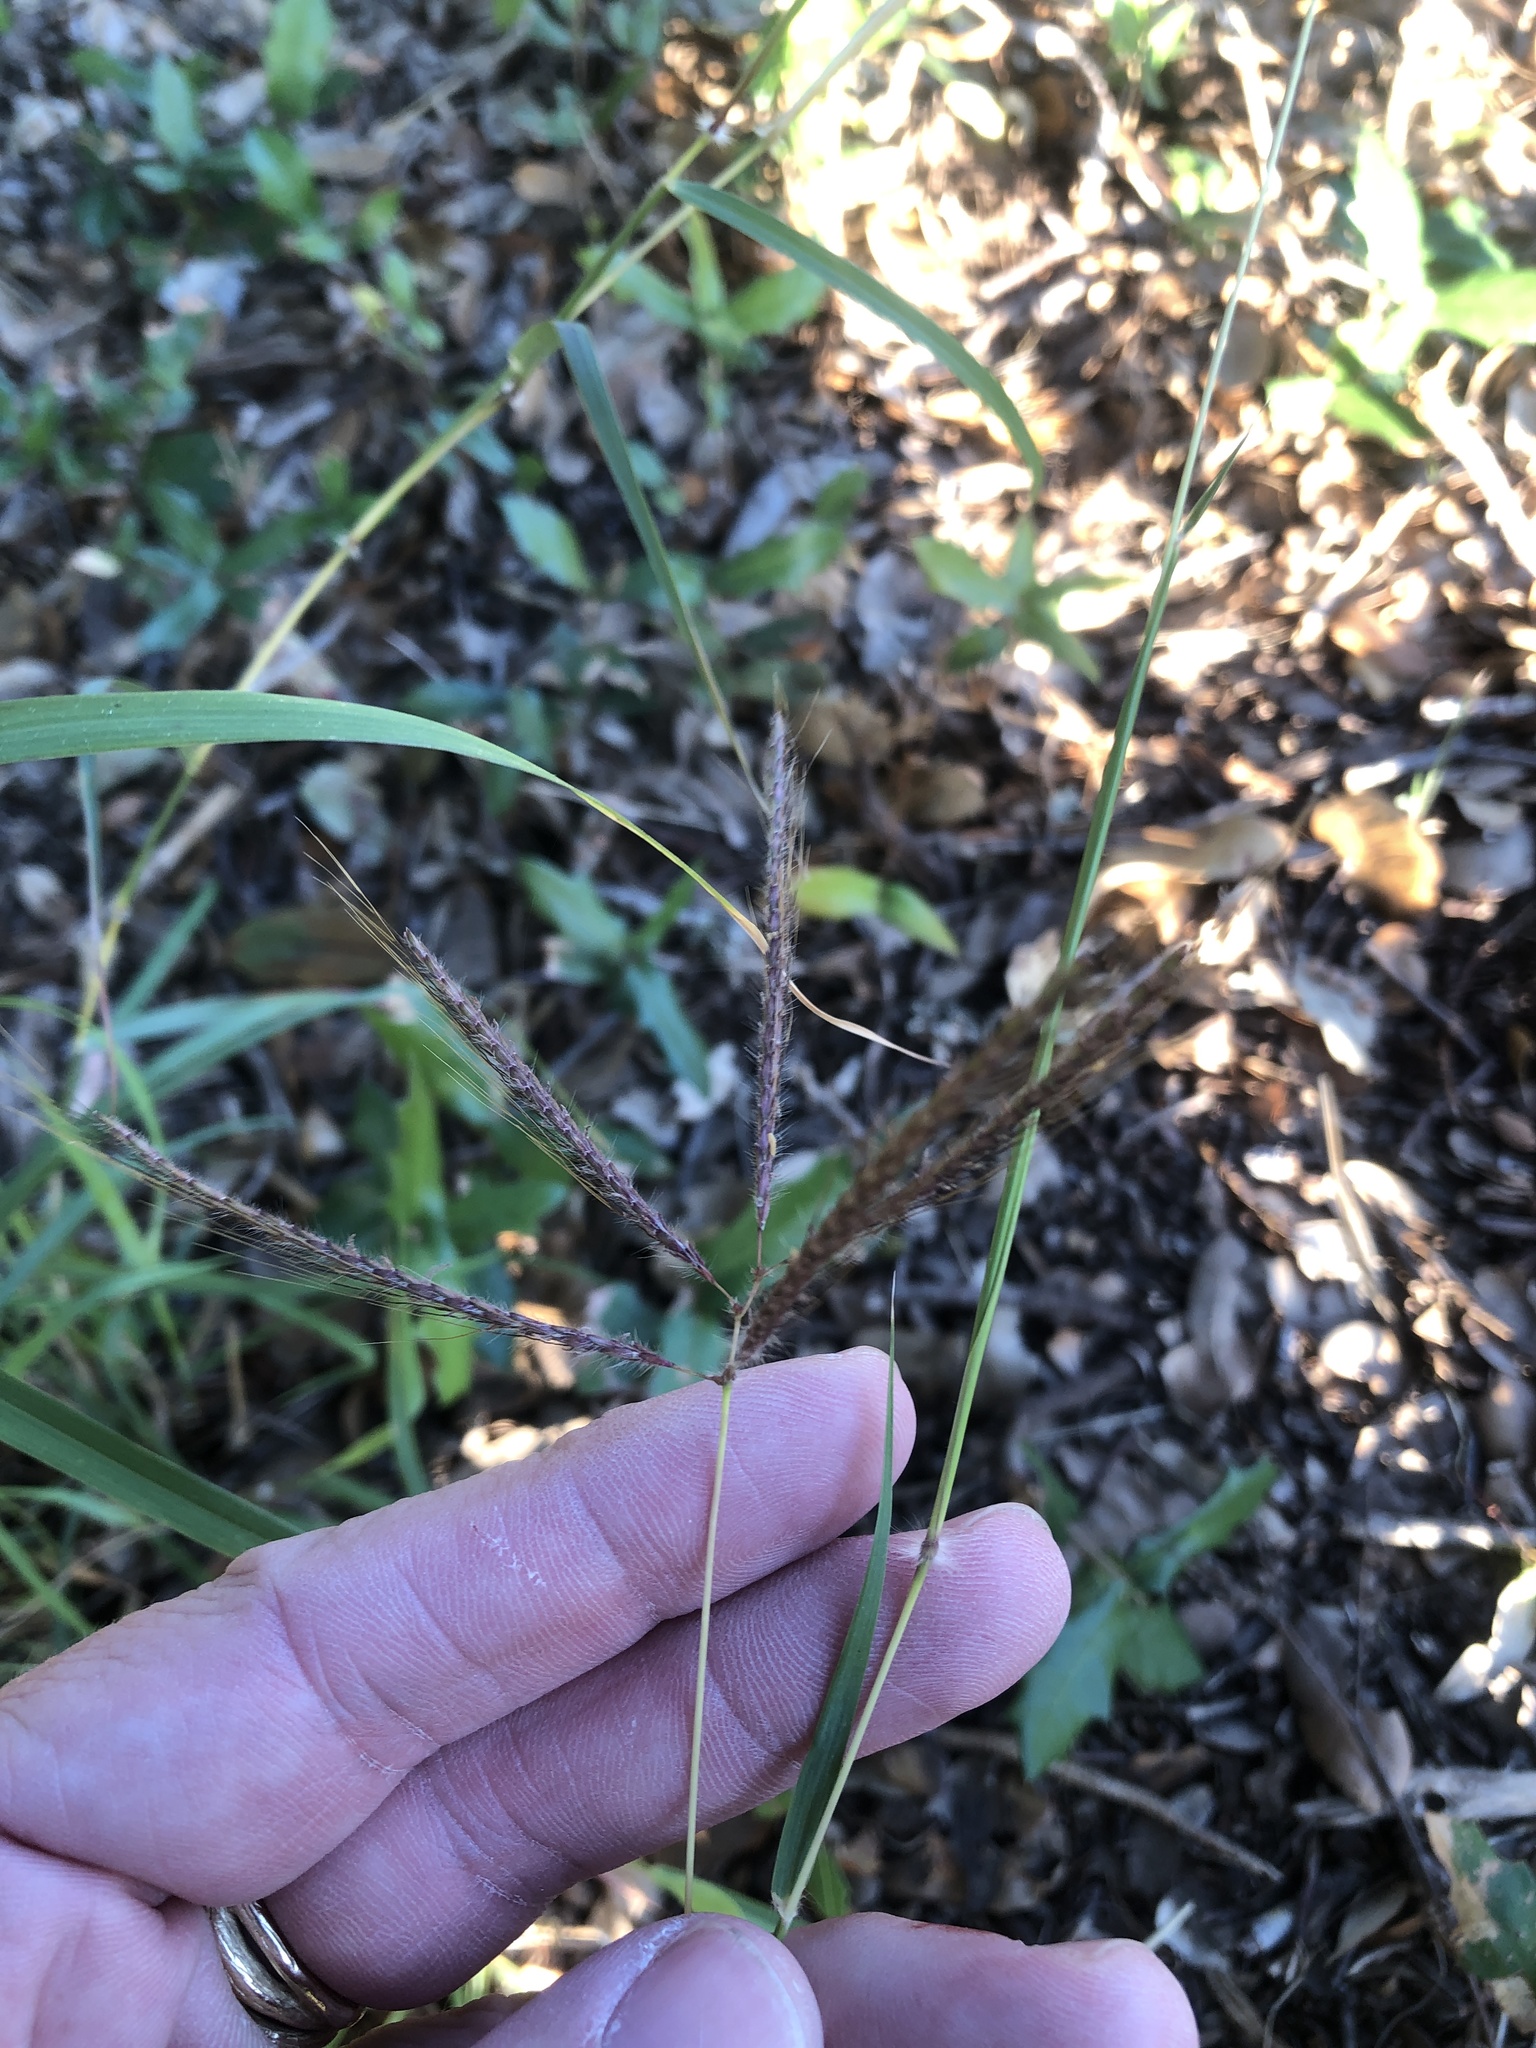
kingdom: Plantae
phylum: Tracheophyta
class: Liliopsida
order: Poales
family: Poaceae
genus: Dichanthium
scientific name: Dichanthium annulatum
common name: Kleberg's bluestem
